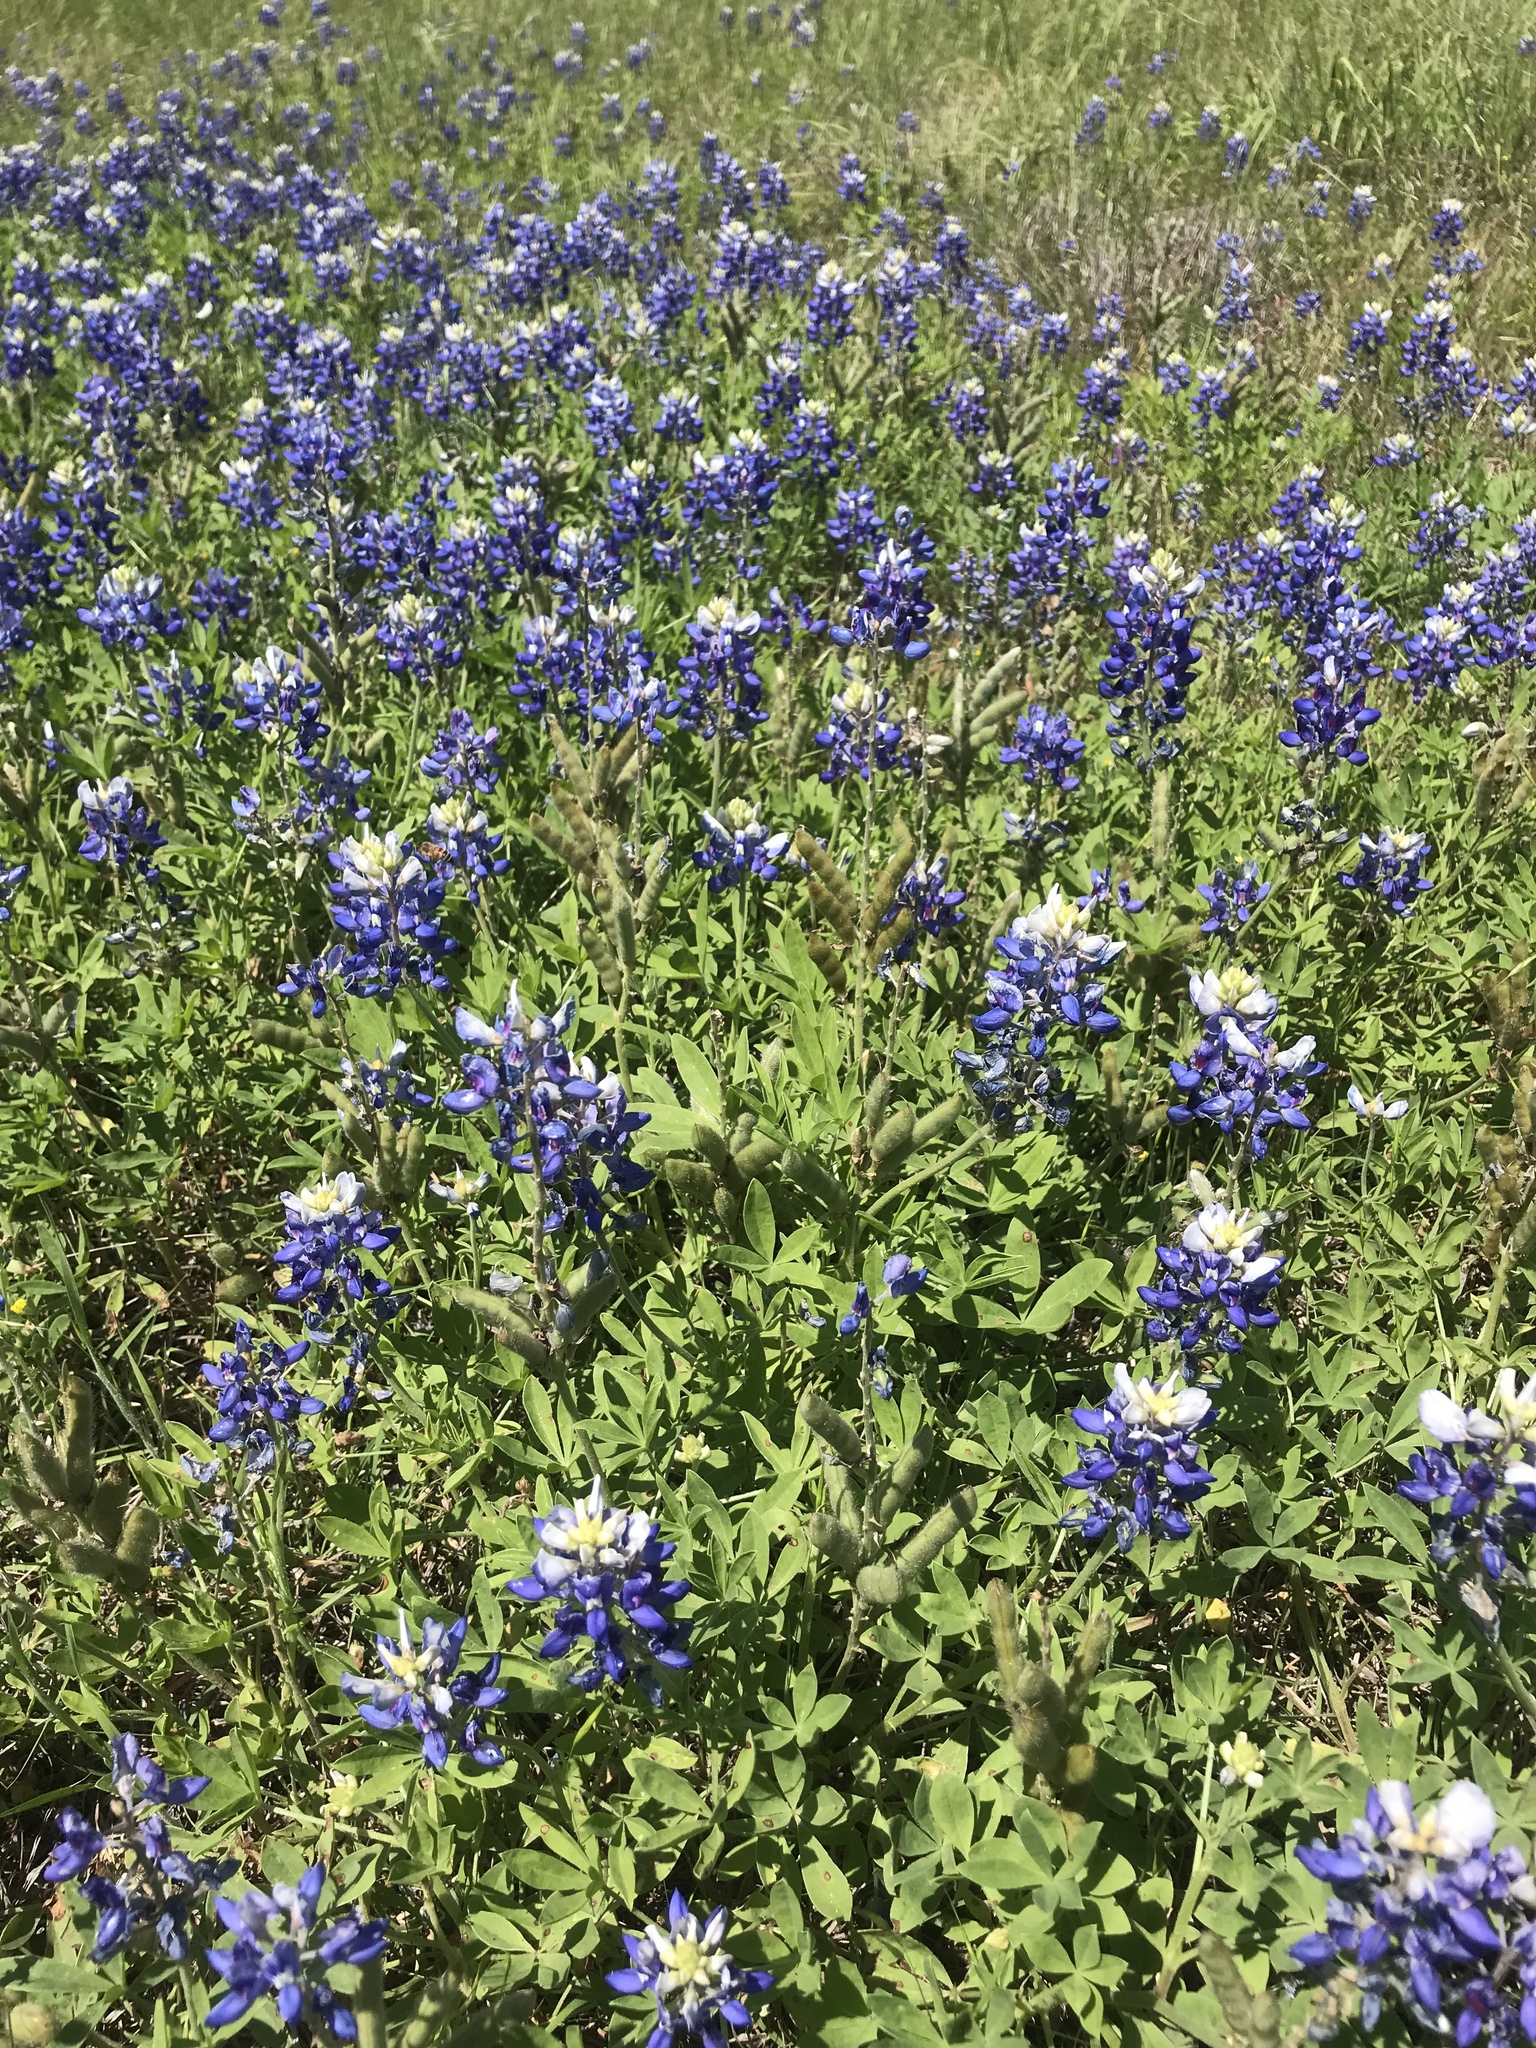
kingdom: Plantae
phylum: Tracheophyta
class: Magnoliopsida
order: Fabales
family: Fabaceae
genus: Lupinus
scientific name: Lupinus texensis
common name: Texas bluebonnet
